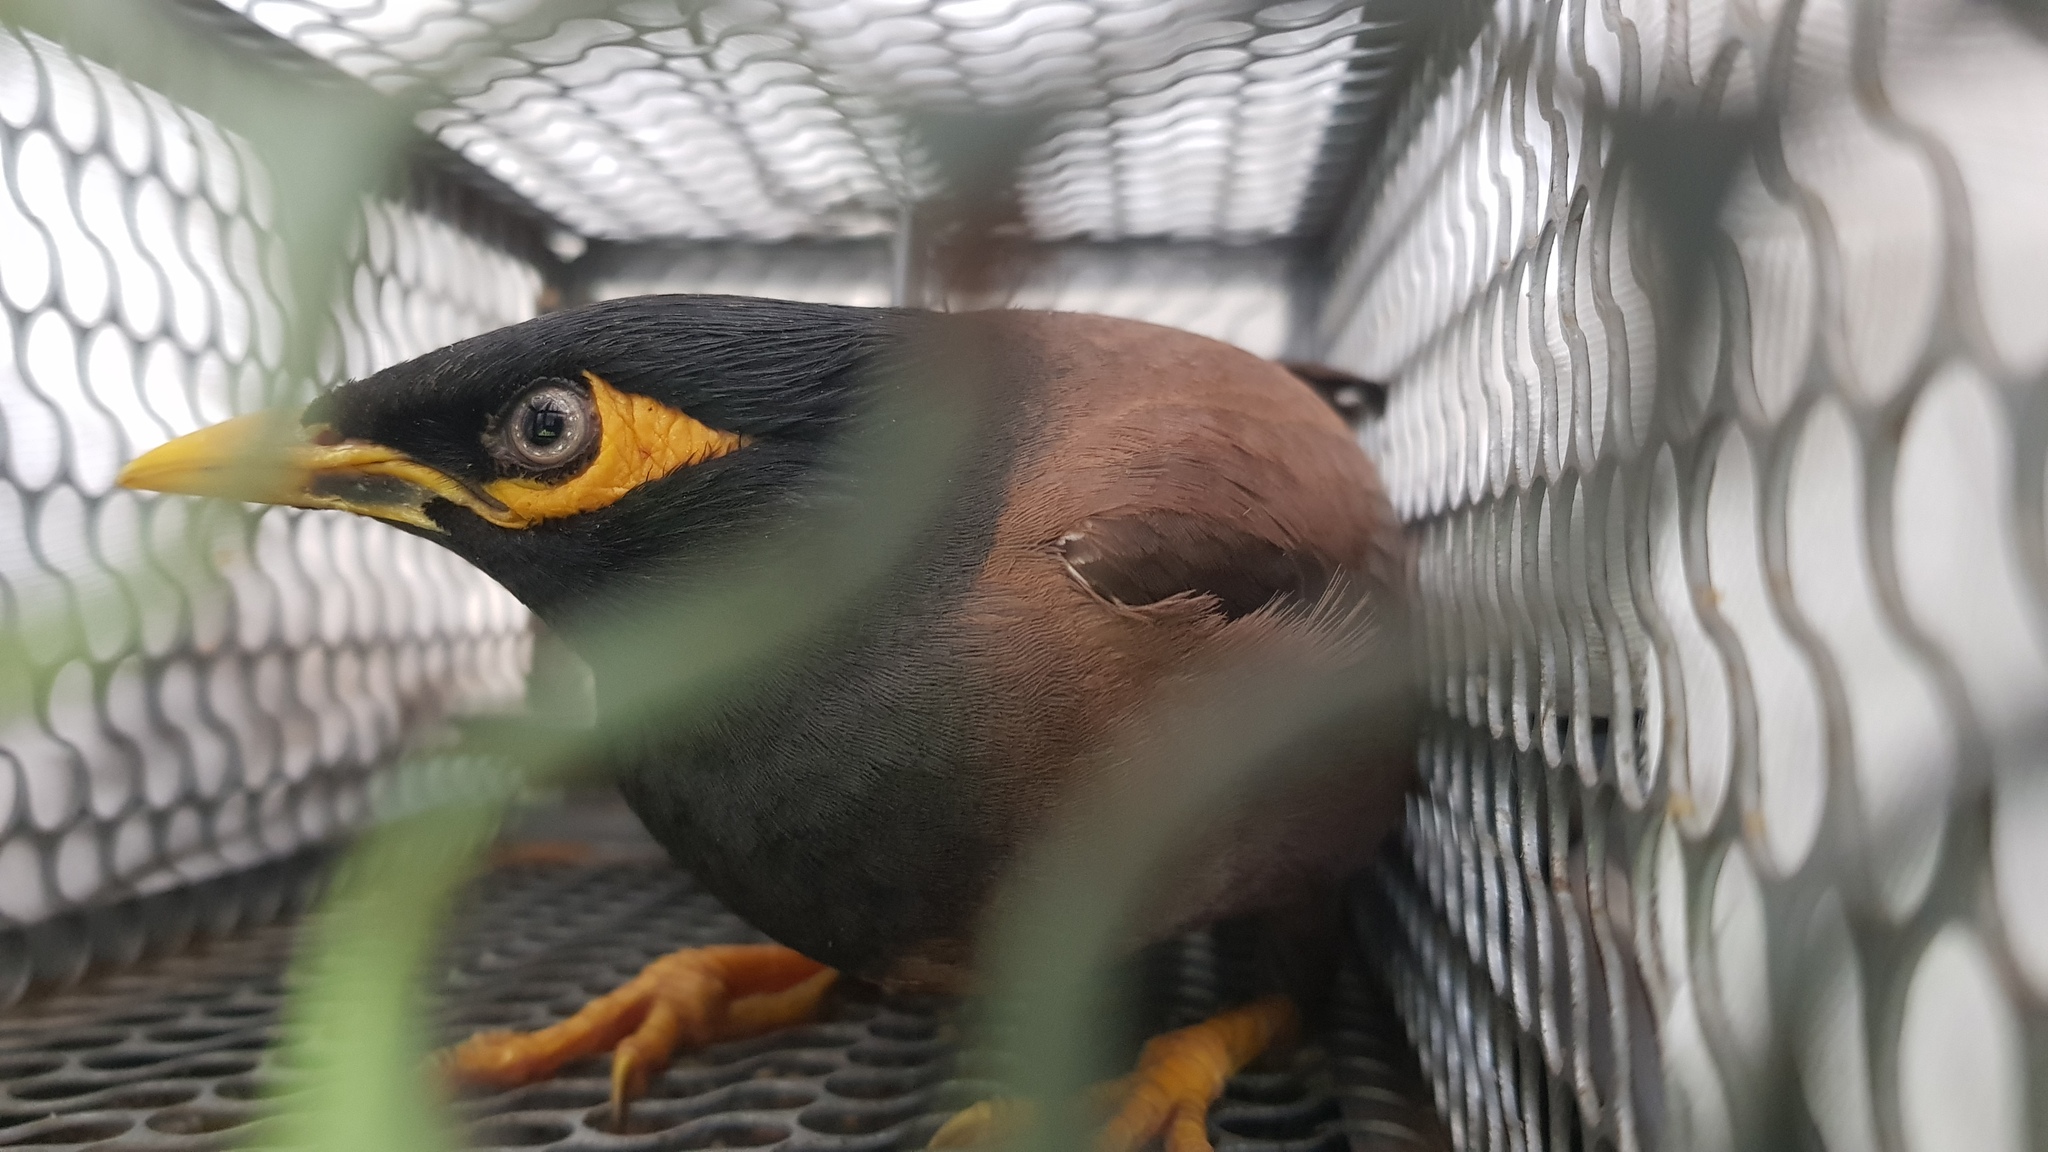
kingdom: Animalia
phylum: Chordata
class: Aves
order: Passeriformes
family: Sturnidae
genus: Acridotheres
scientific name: Acridotheres tristis
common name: Common myna
